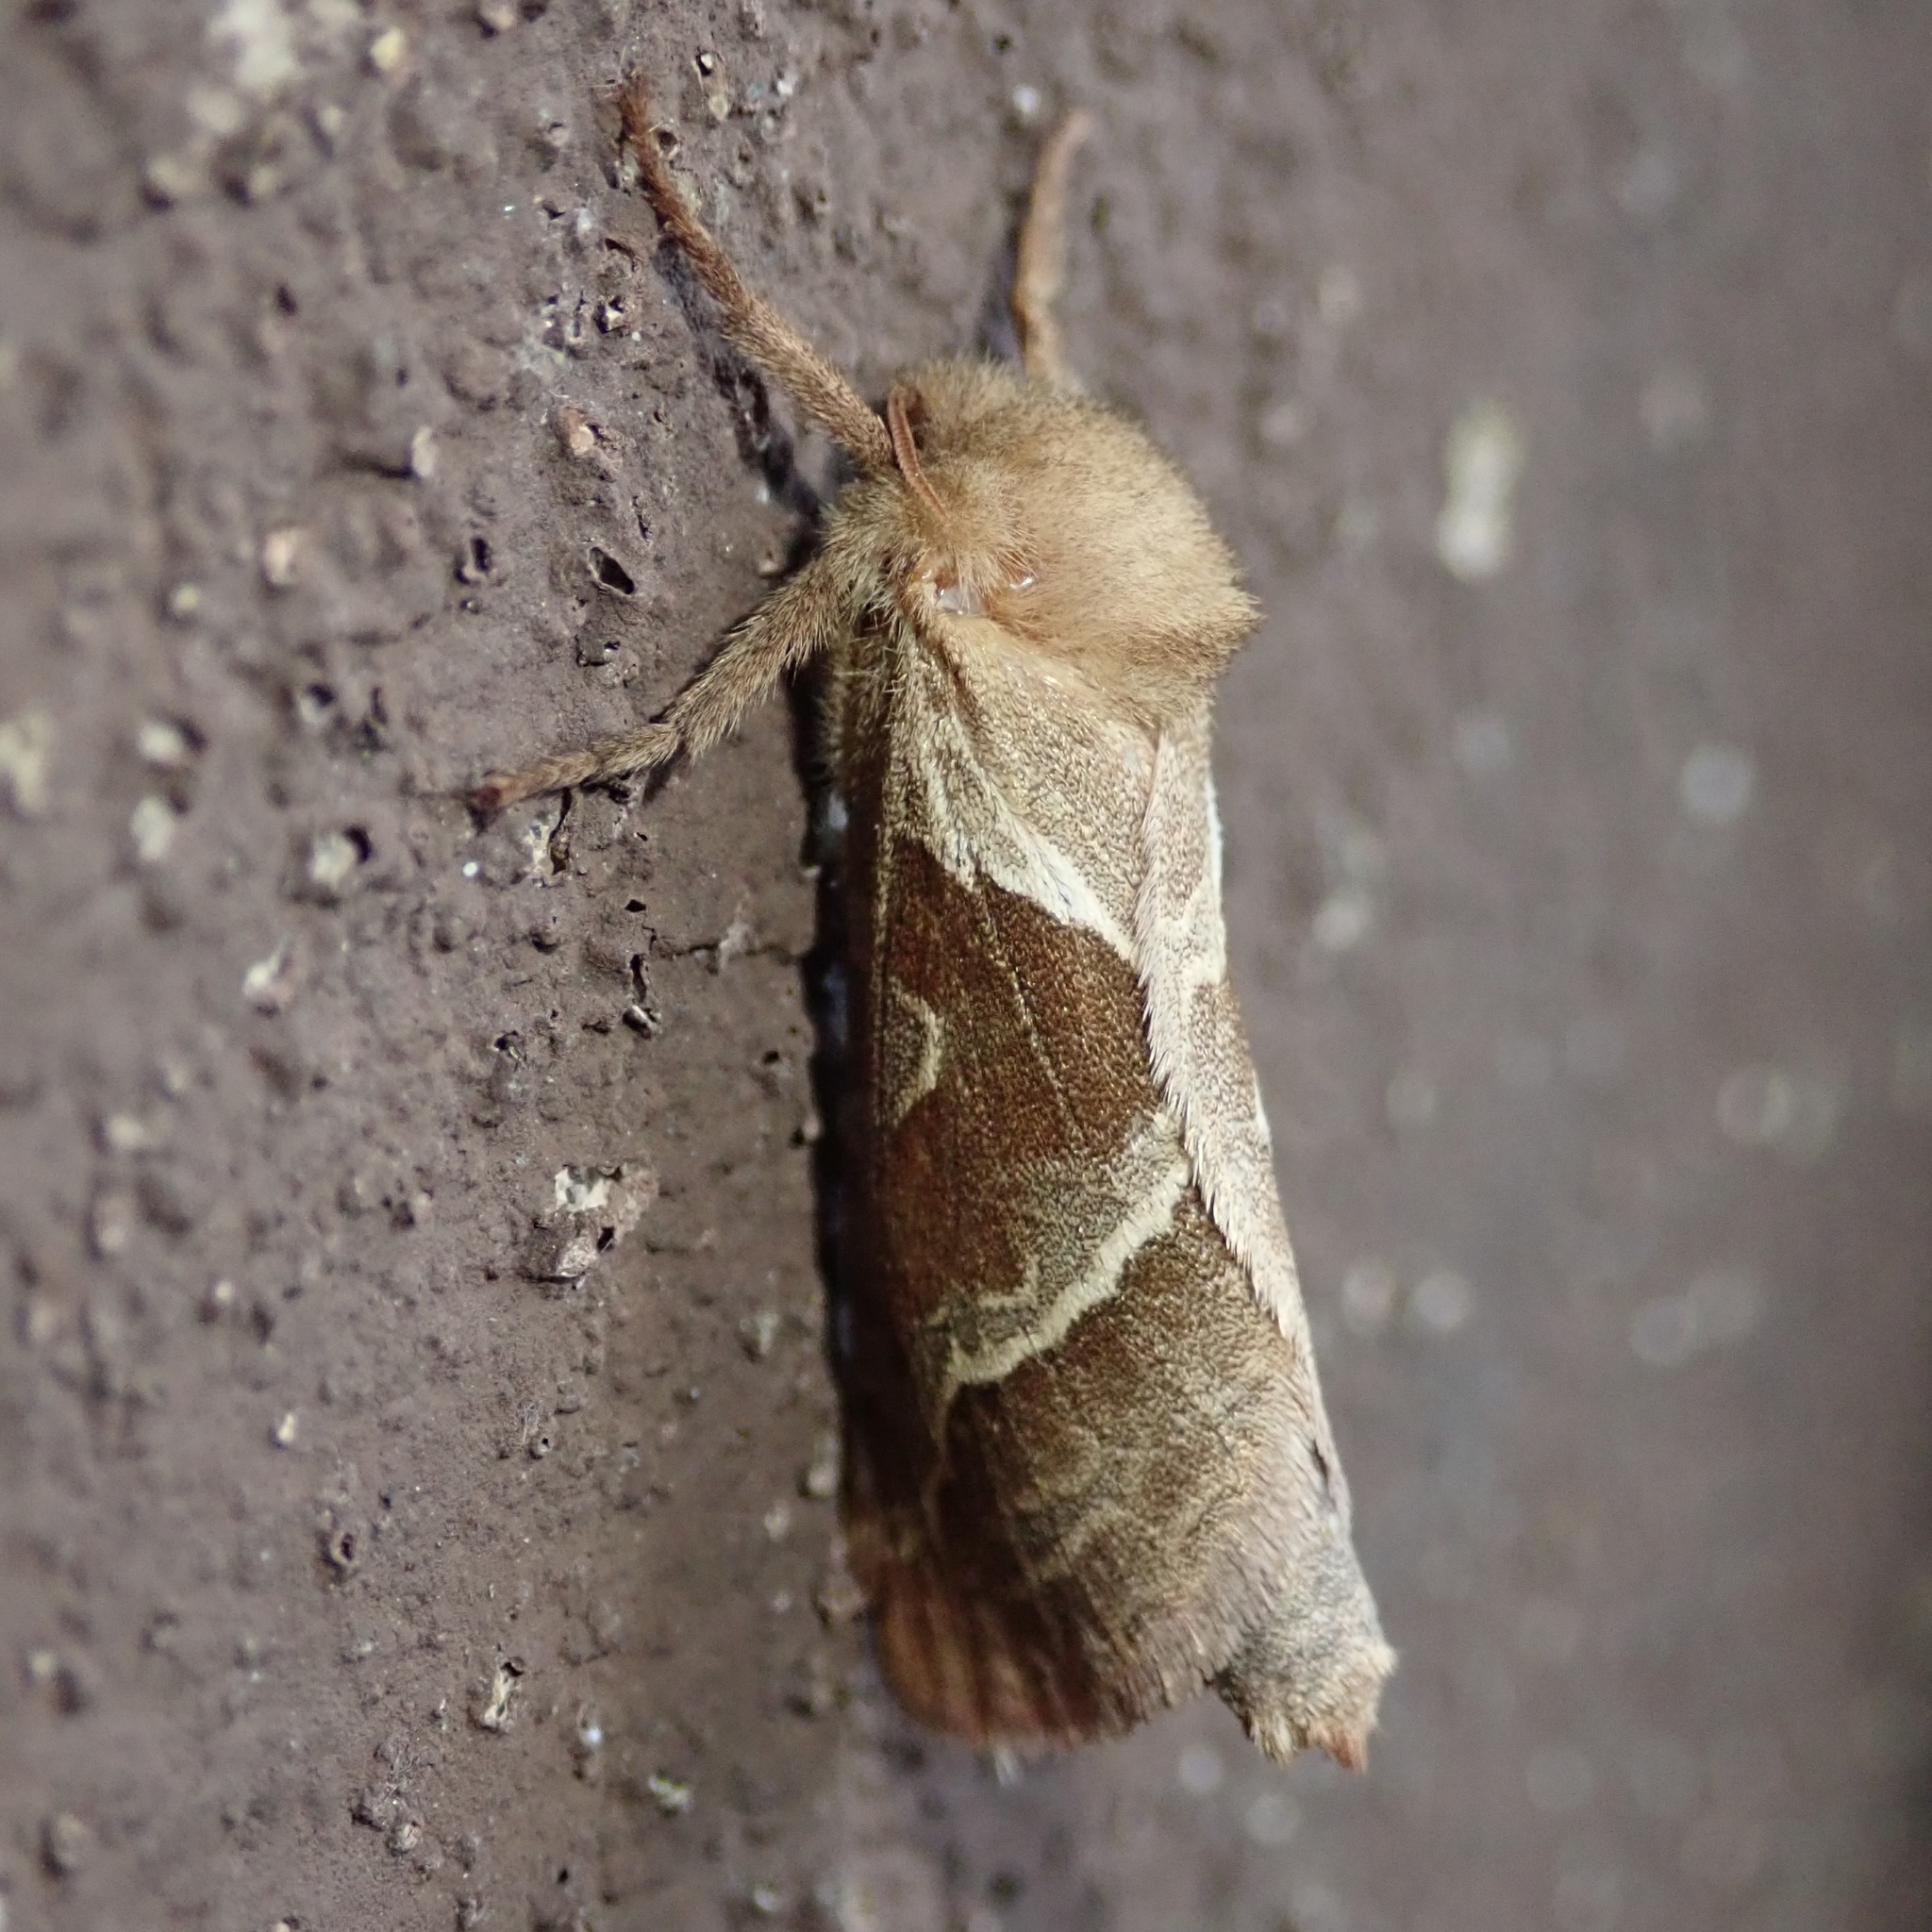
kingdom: Animalia
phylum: Arthropoda
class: Insecta
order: Lepidoptera
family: Hepialidae
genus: Triodia
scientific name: Triodia sylvina
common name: Orange swift
